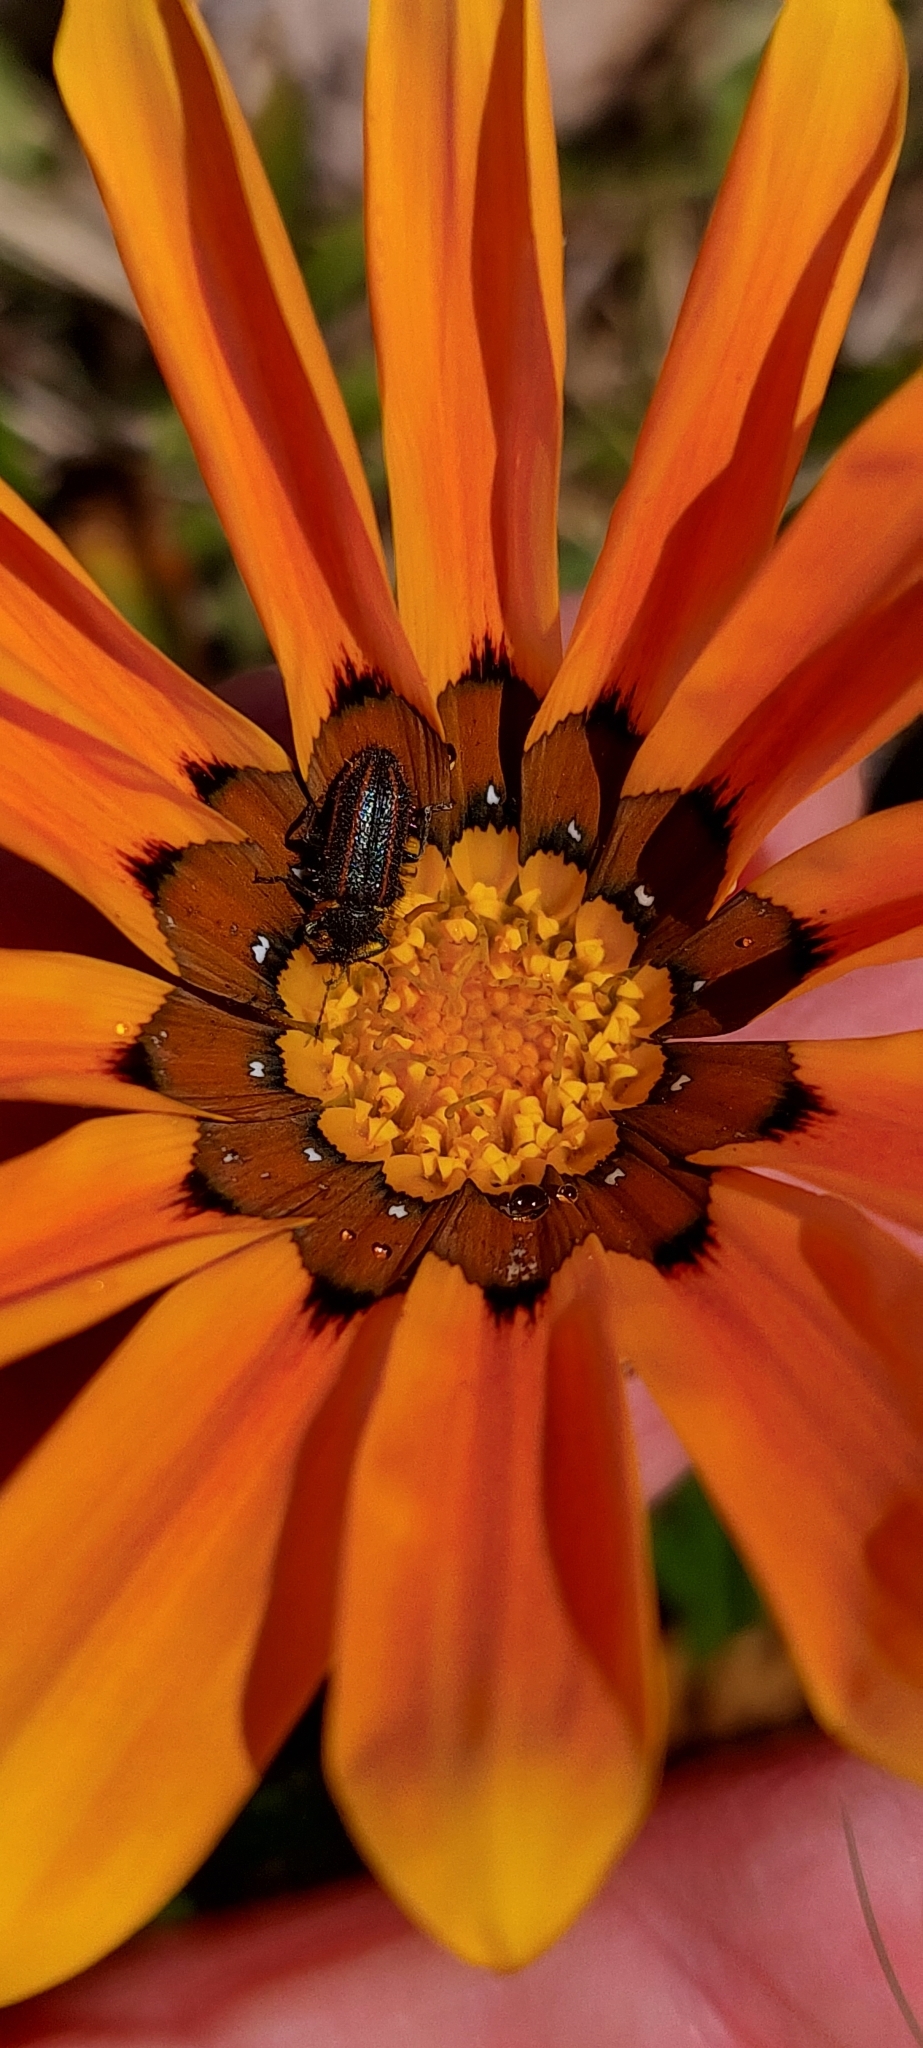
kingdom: Animalia
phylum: Arthropoda
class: Insecta
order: Coleoptera
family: Melyridae
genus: Astylus
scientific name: Astylus
